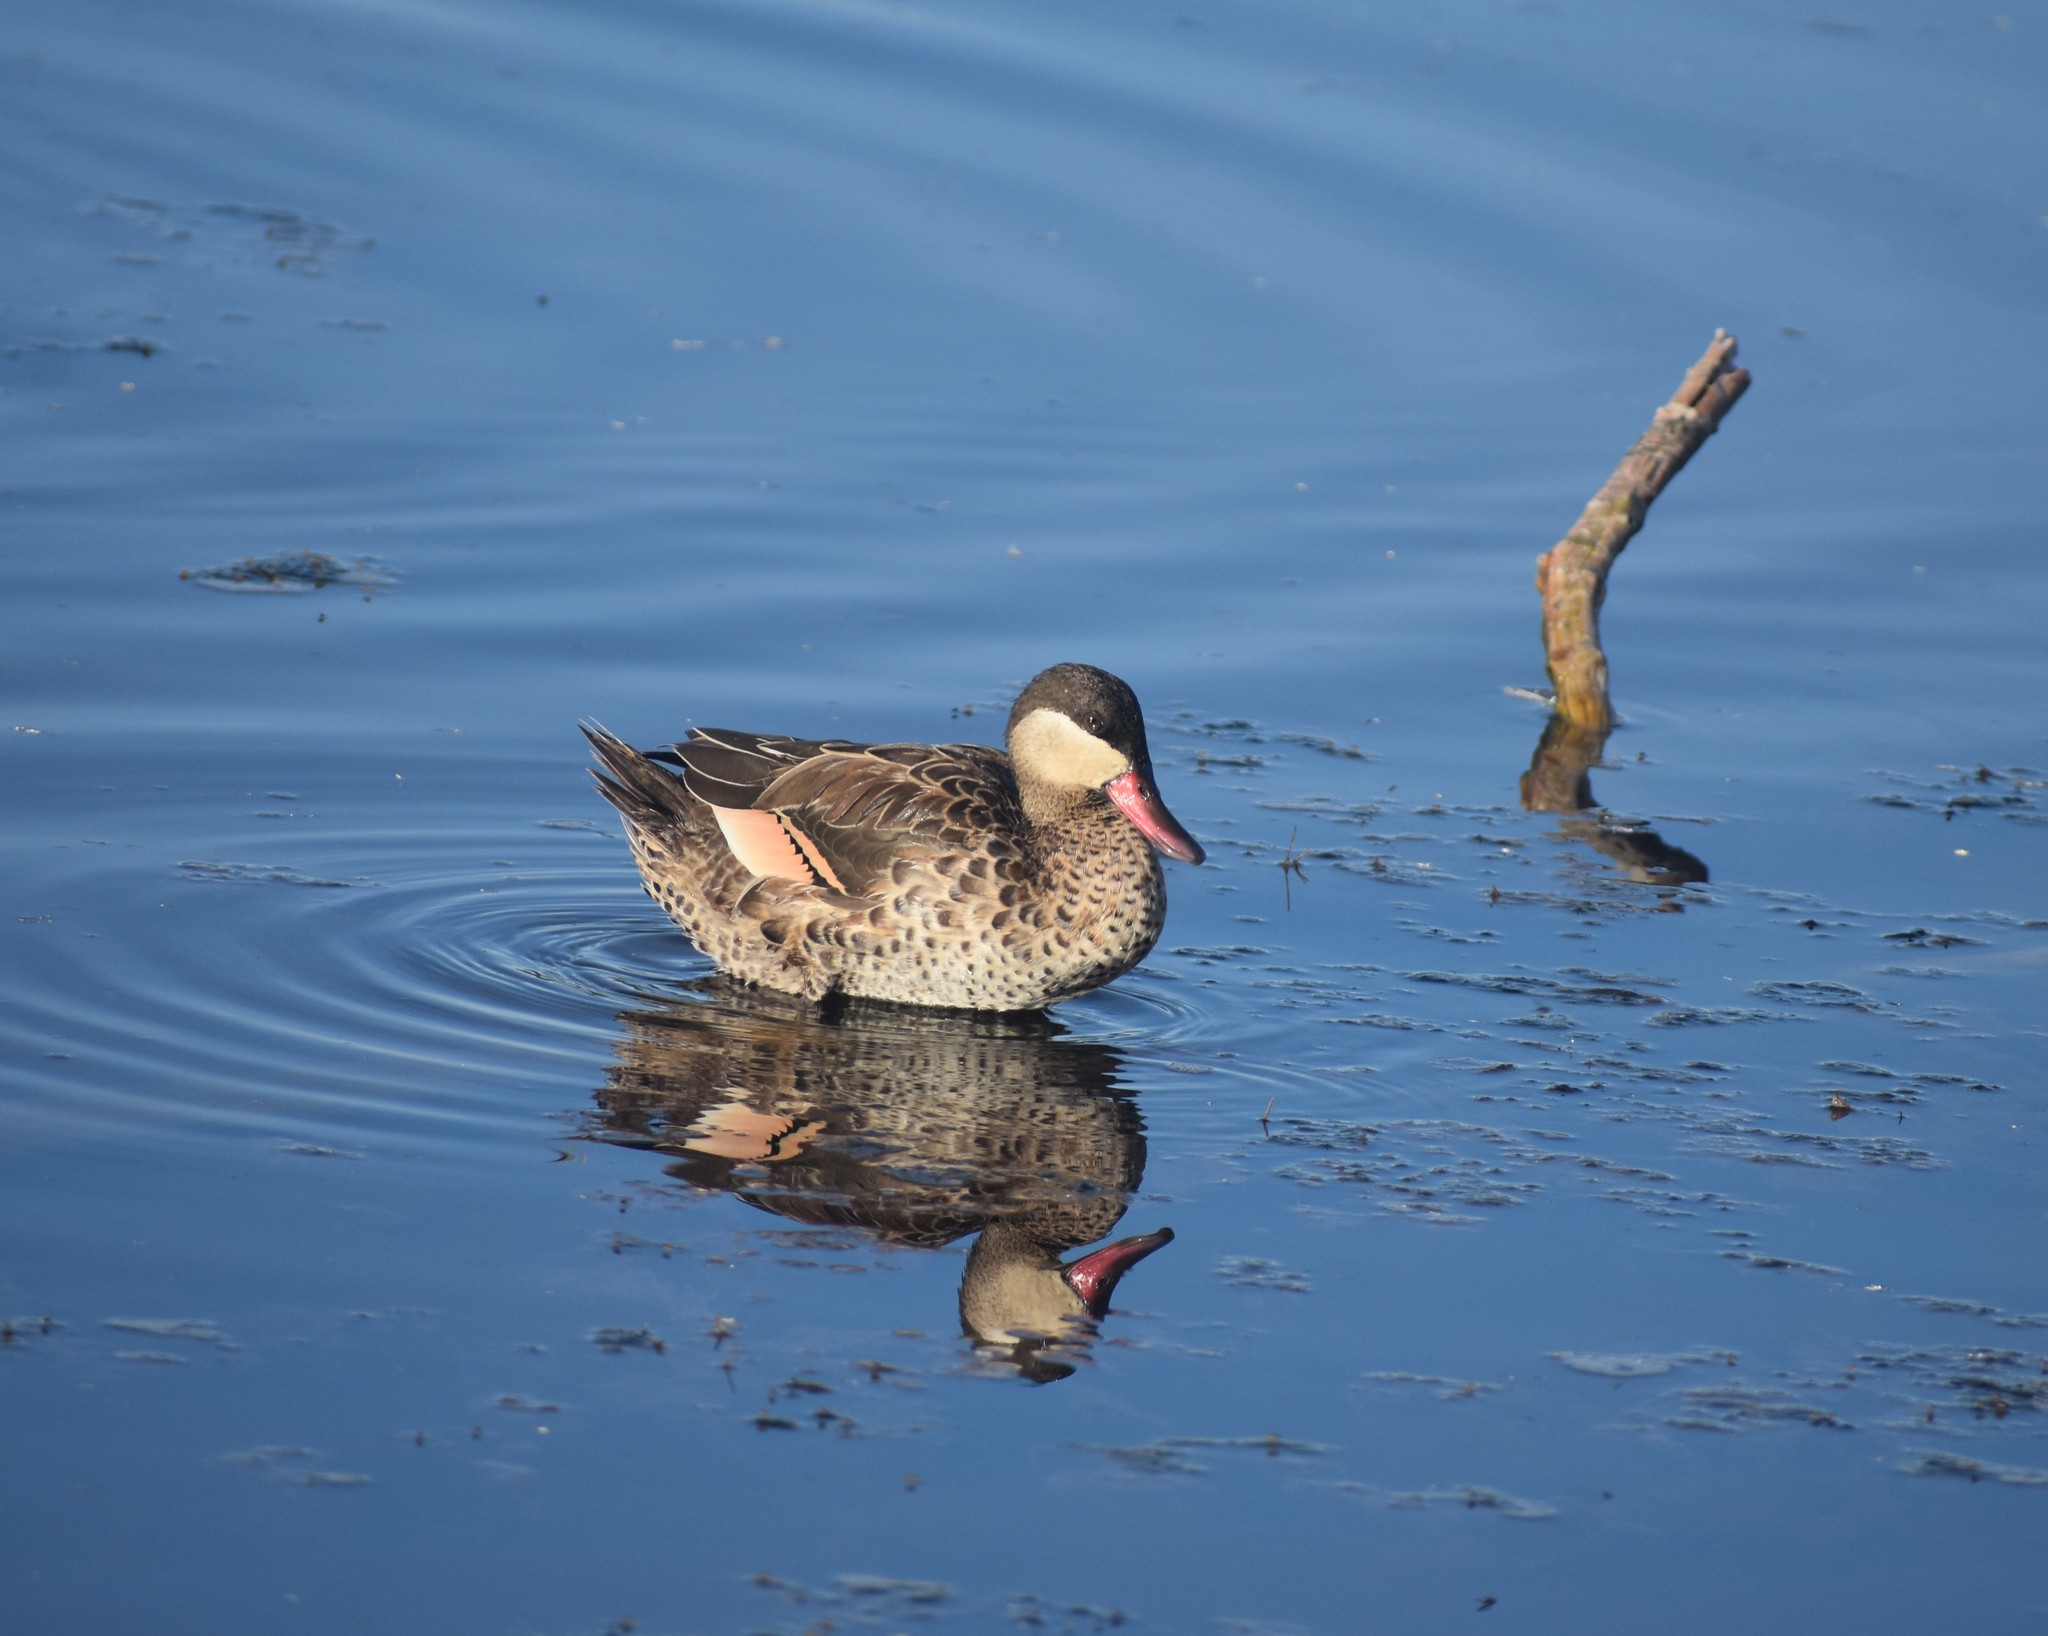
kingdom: Animalia
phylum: Chordata
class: Aves
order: Anseriformes
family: Anatidae
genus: Anas
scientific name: Anas erythrorhyncha
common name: Red-billed teal
